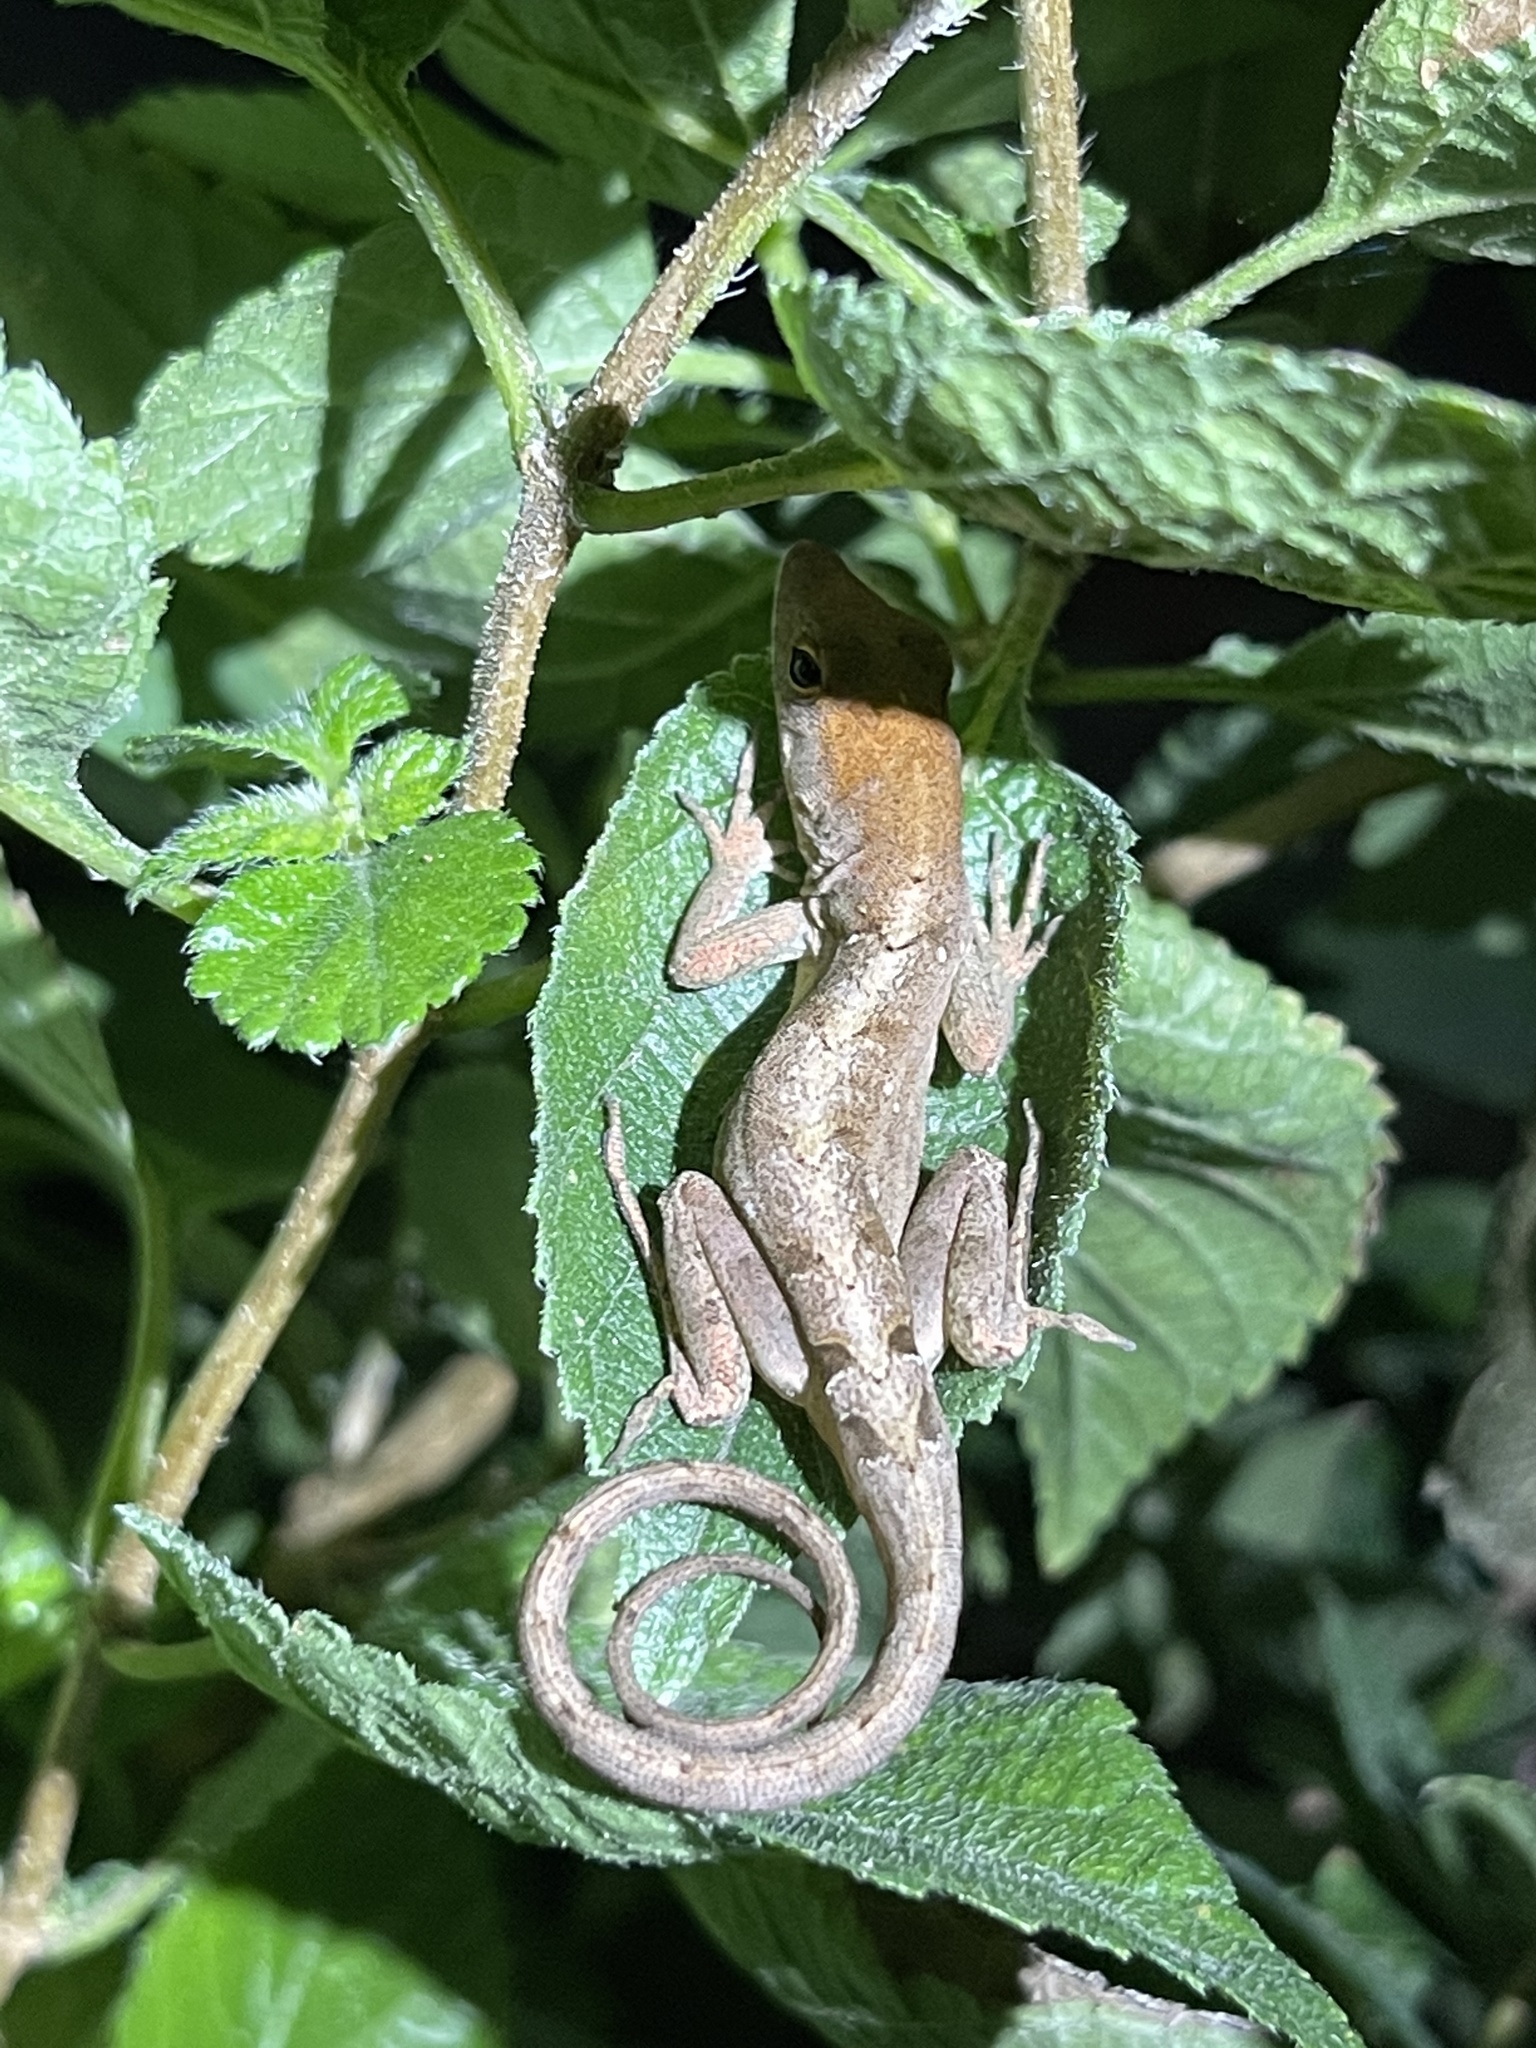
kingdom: Animalia
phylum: Chordata
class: Squamata
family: Dactyloidae
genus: Anolis
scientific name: Anolis sagrei
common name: Brown anole
